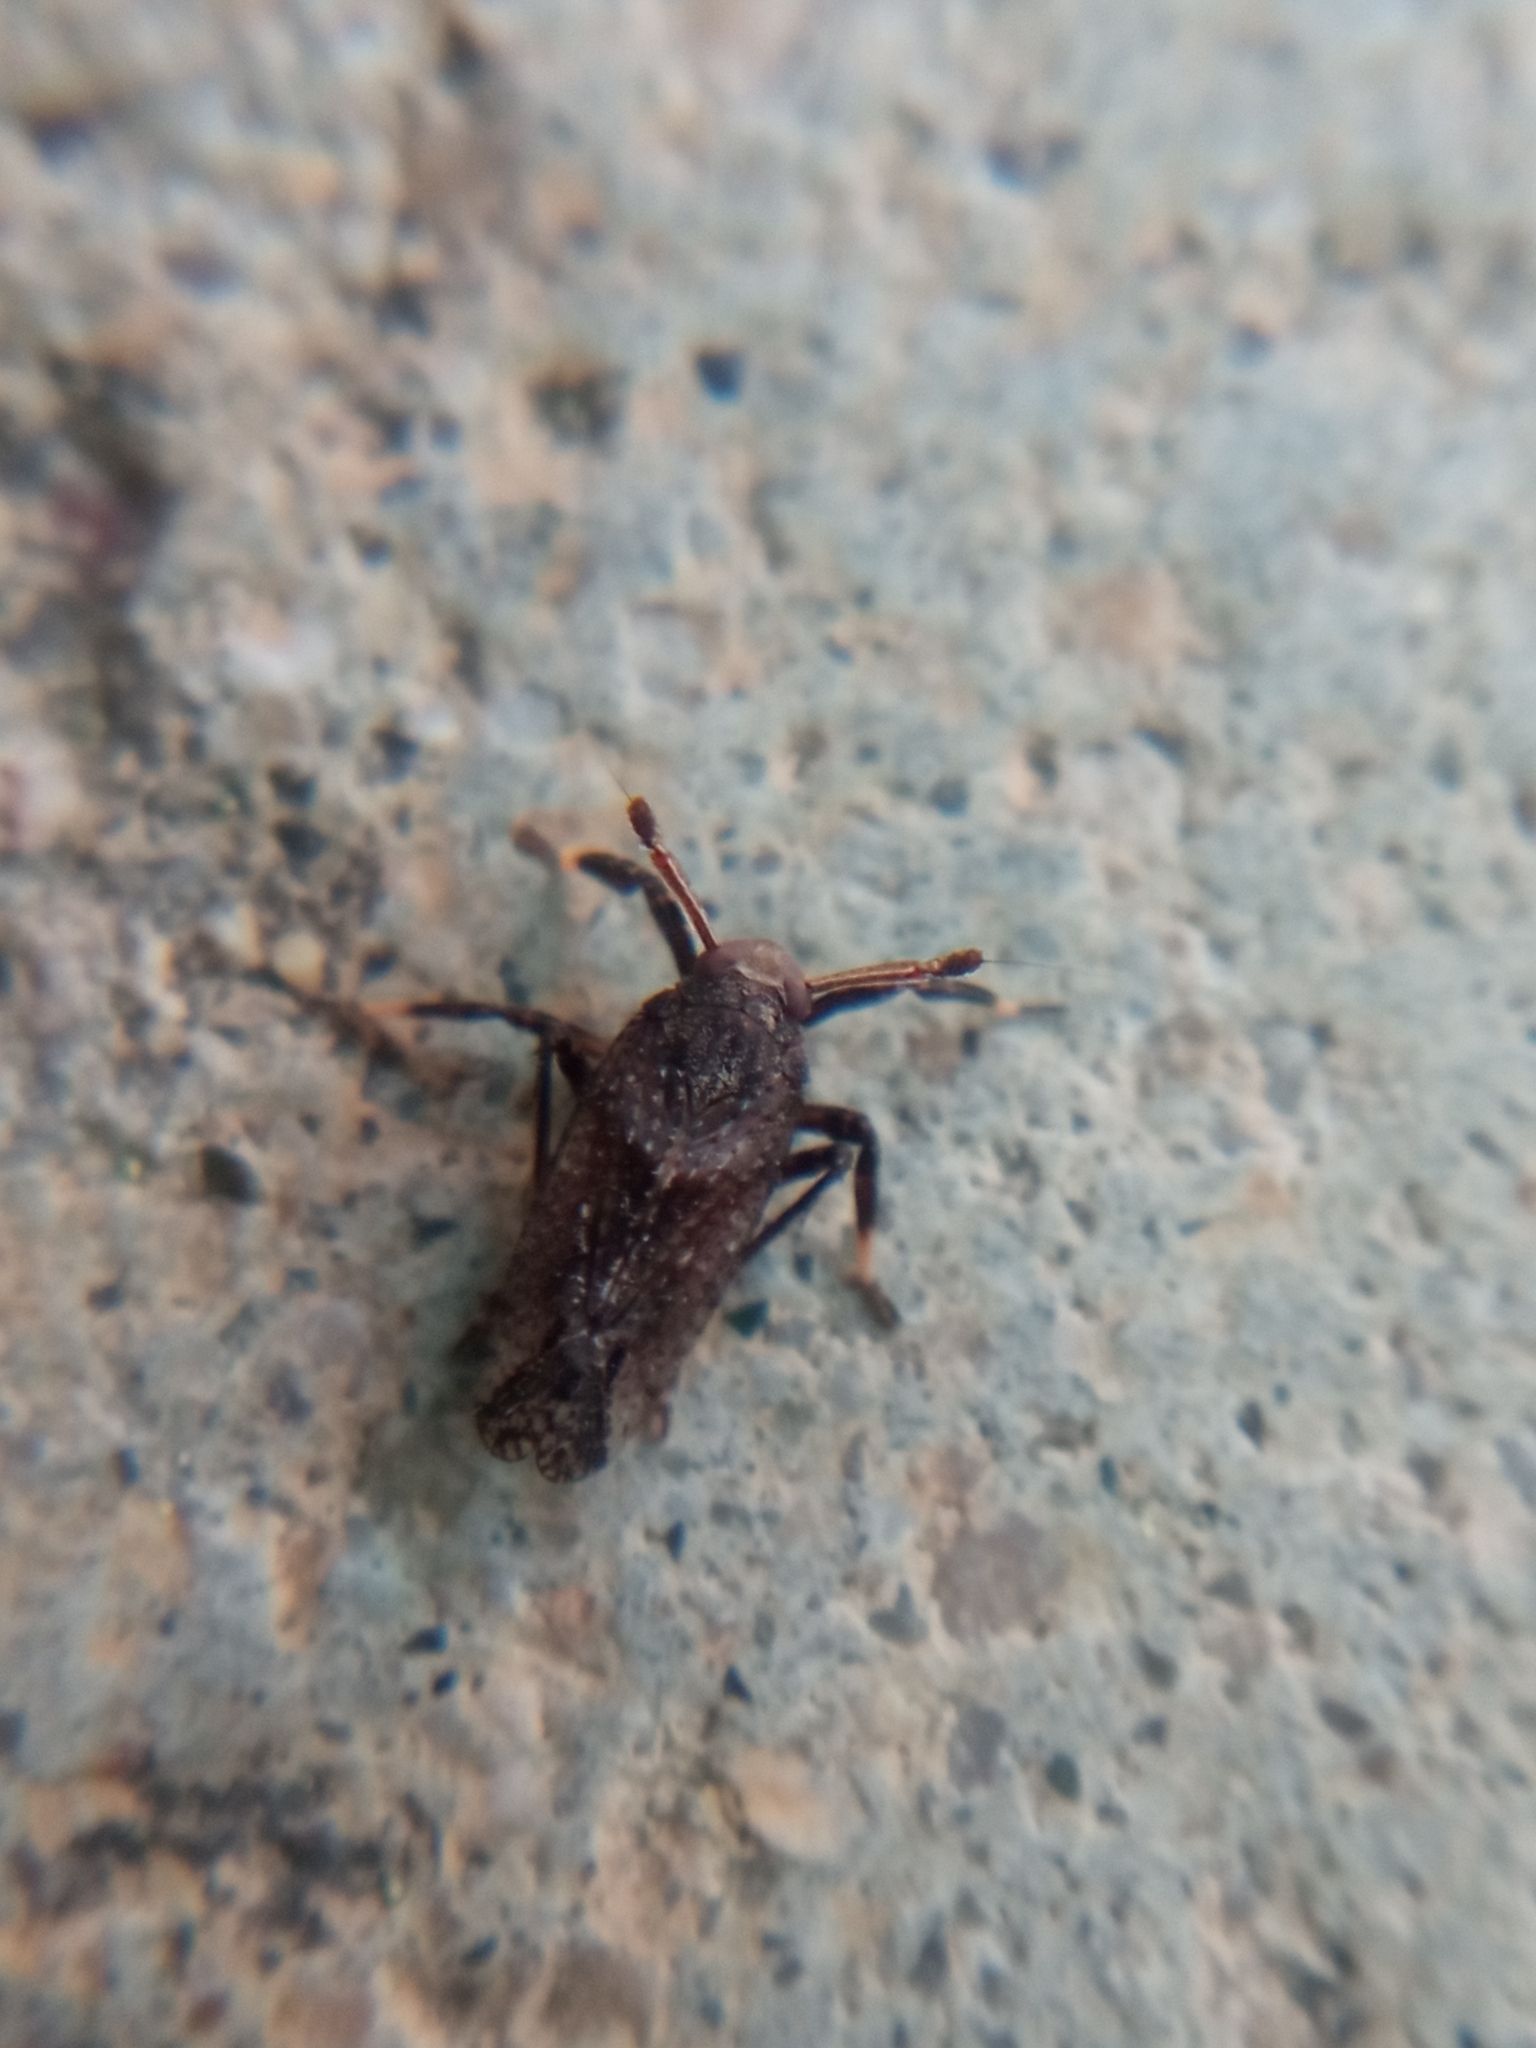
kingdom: Animalia
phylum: Arthropoda
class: Insecta
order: Hemiptera
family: Delphacidae
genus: Asiraca
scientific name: Asiraca clavicornis
